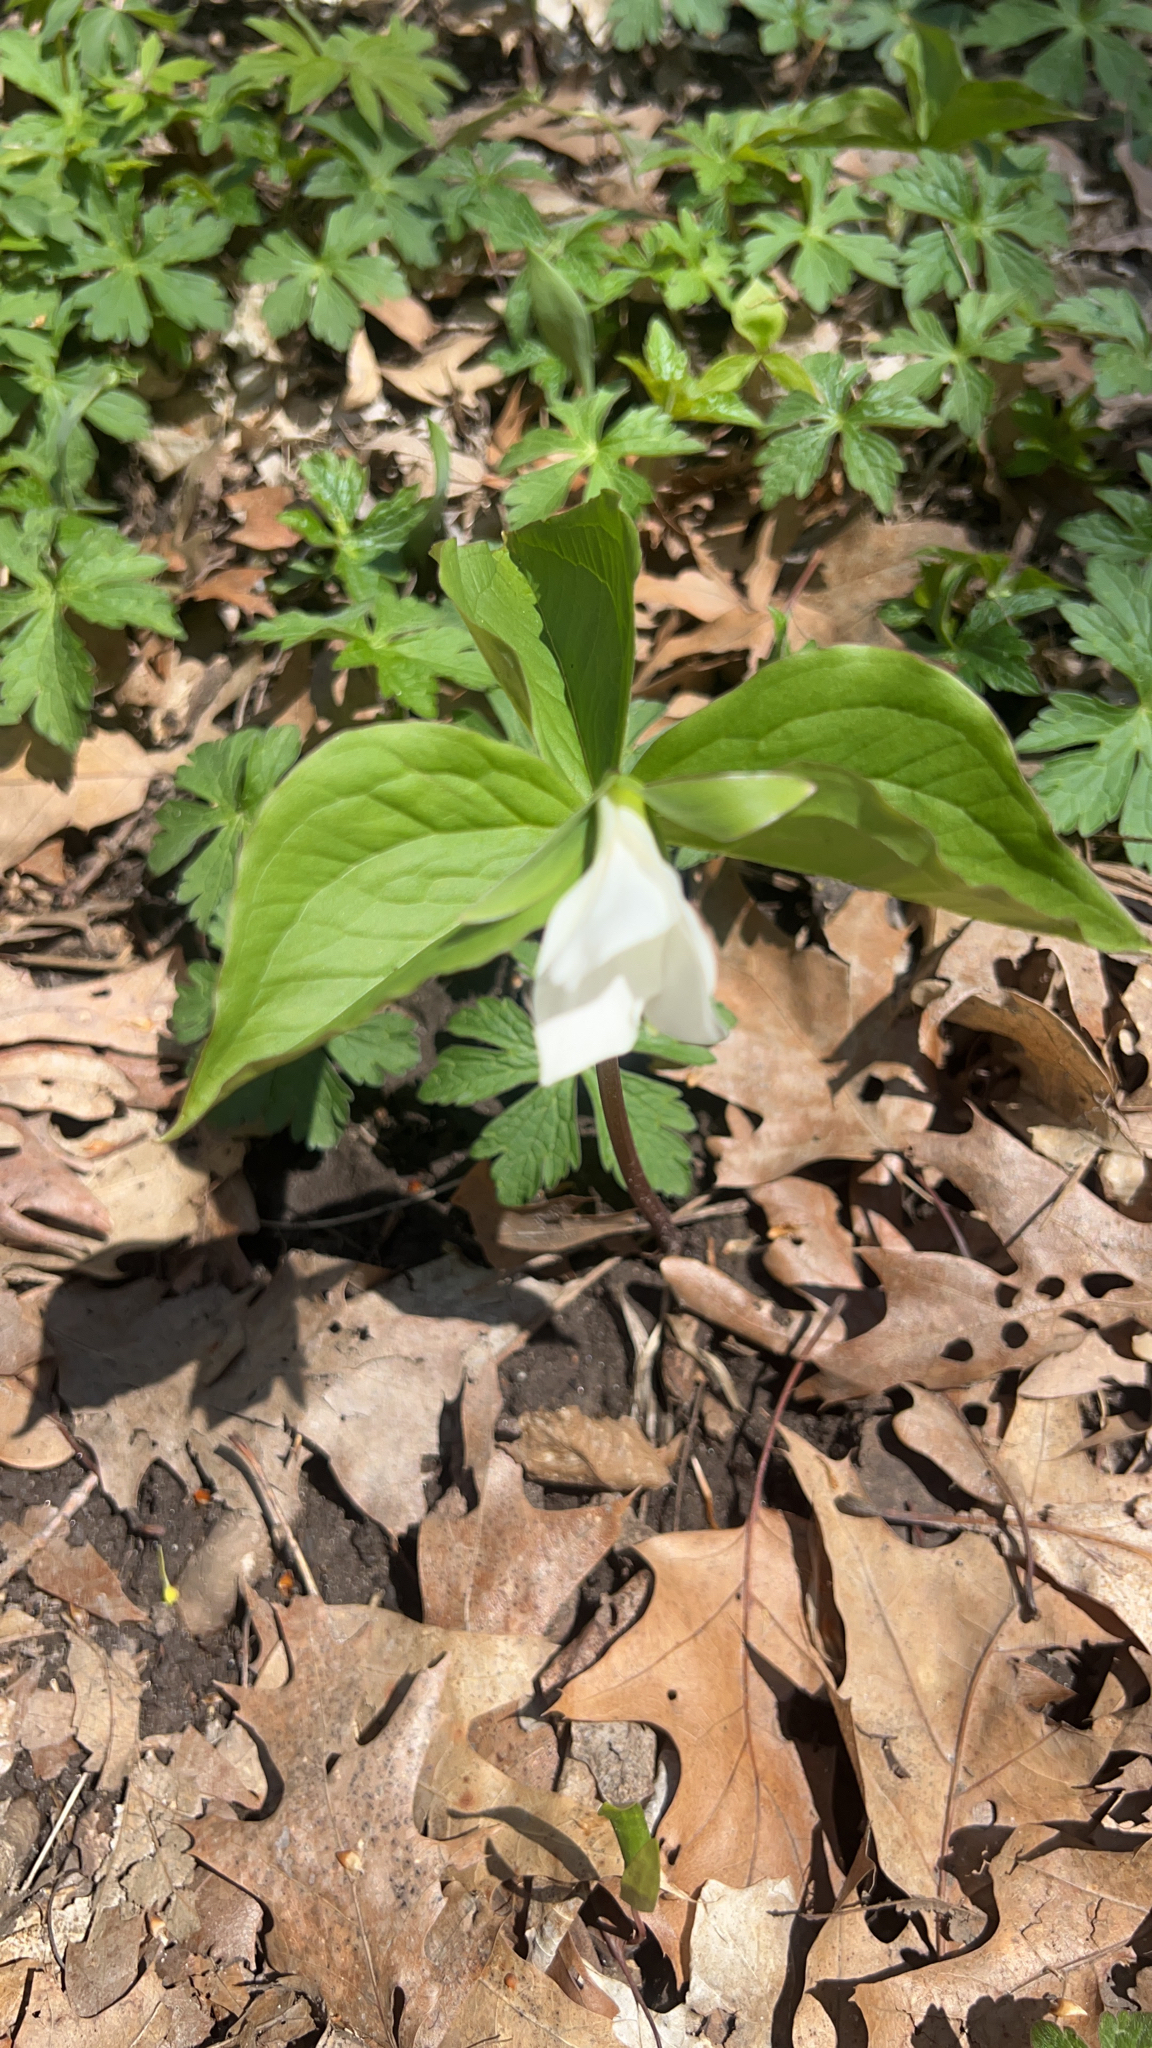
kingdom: Plantae
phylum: Tracheophyta
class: Liliopsida
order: Liliales
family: Melanthiaceae
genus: Trillium
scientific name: Trillium grandiflorum
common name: Great white trillium
